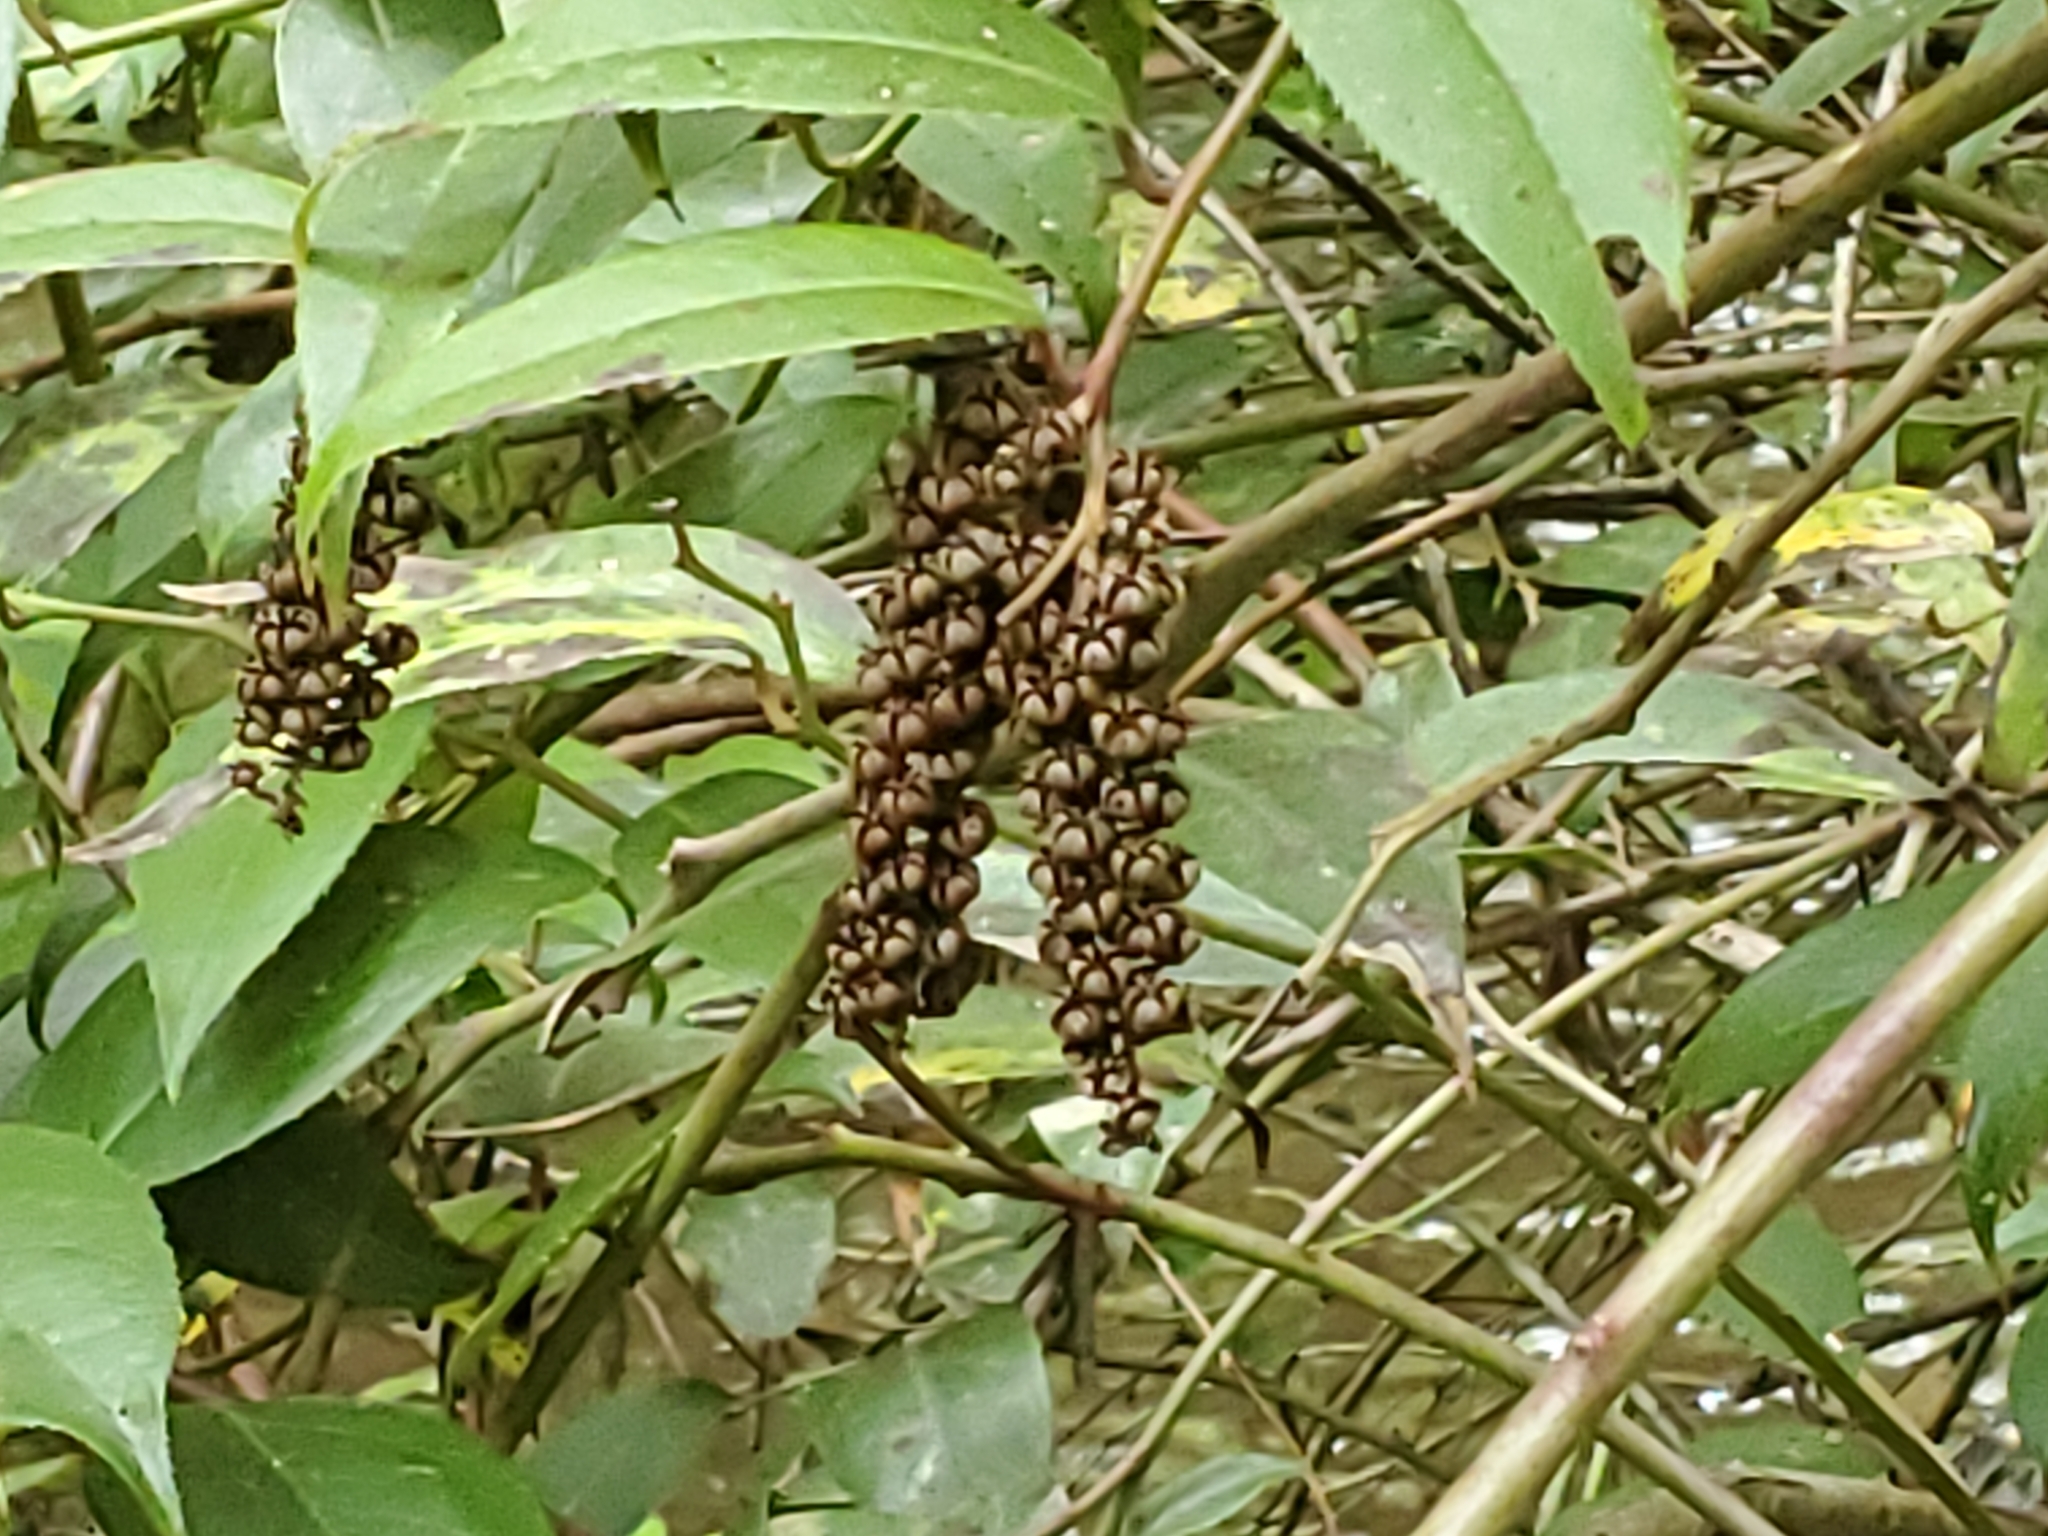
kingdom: Plantae
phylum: Tracheophyta
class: Magnoliopsida
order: Ericales
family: Ericaceae
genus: Leucothoe
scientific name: Leucothoe fontanesiana
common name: Fetterbush
